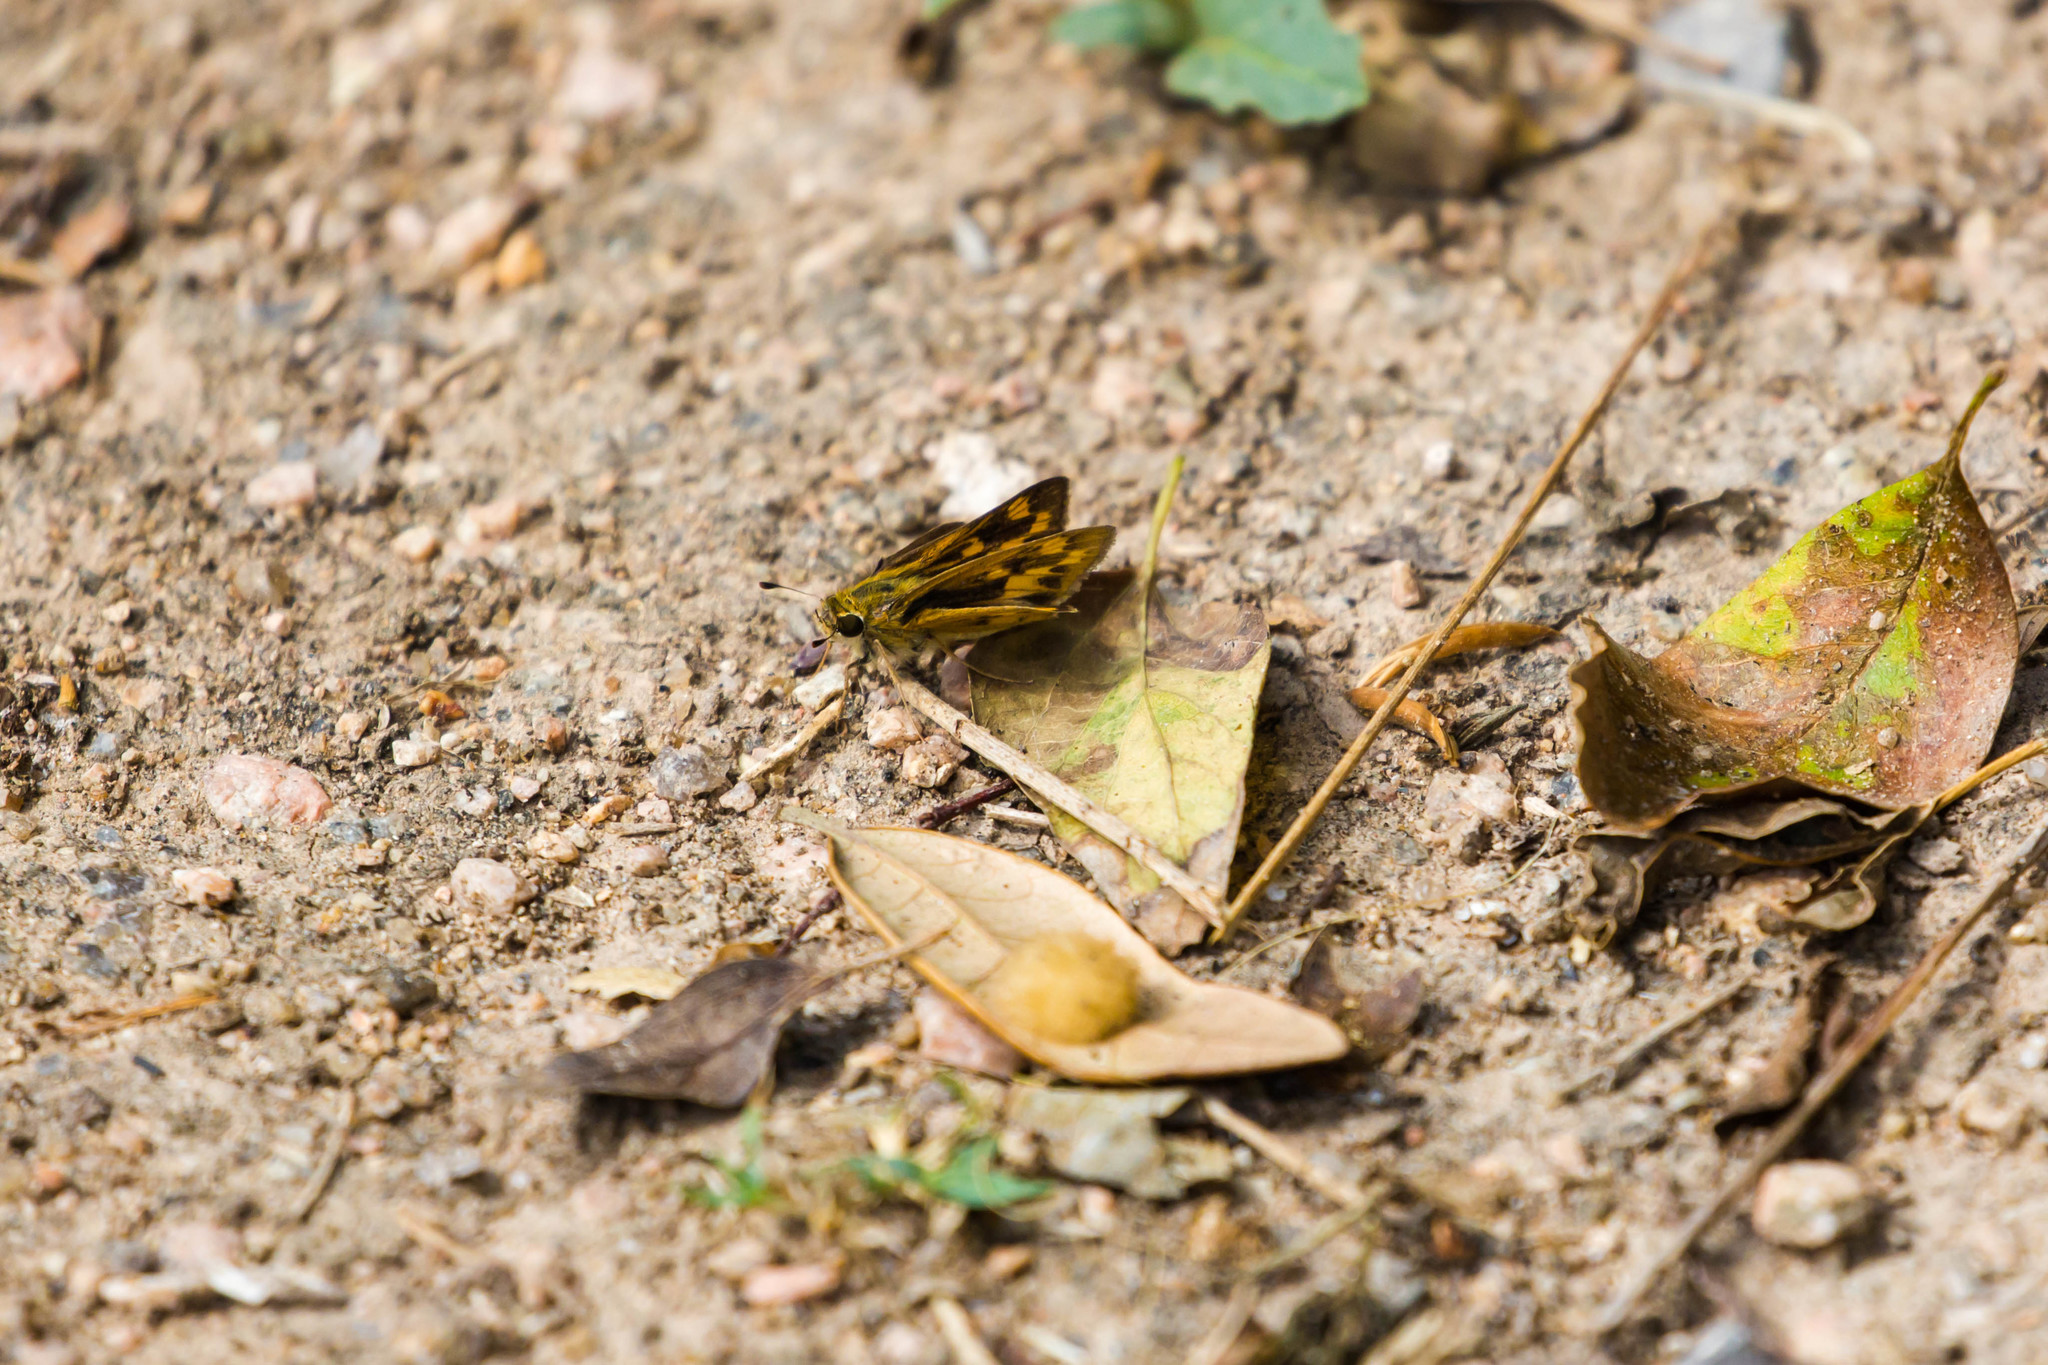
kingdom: Animalia
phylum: Arthropoda
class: Insecta
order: Lepidoptera
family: Hesperiidae
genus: Hylephila
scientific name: Hylephila phyleus
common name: Fiery skipper
